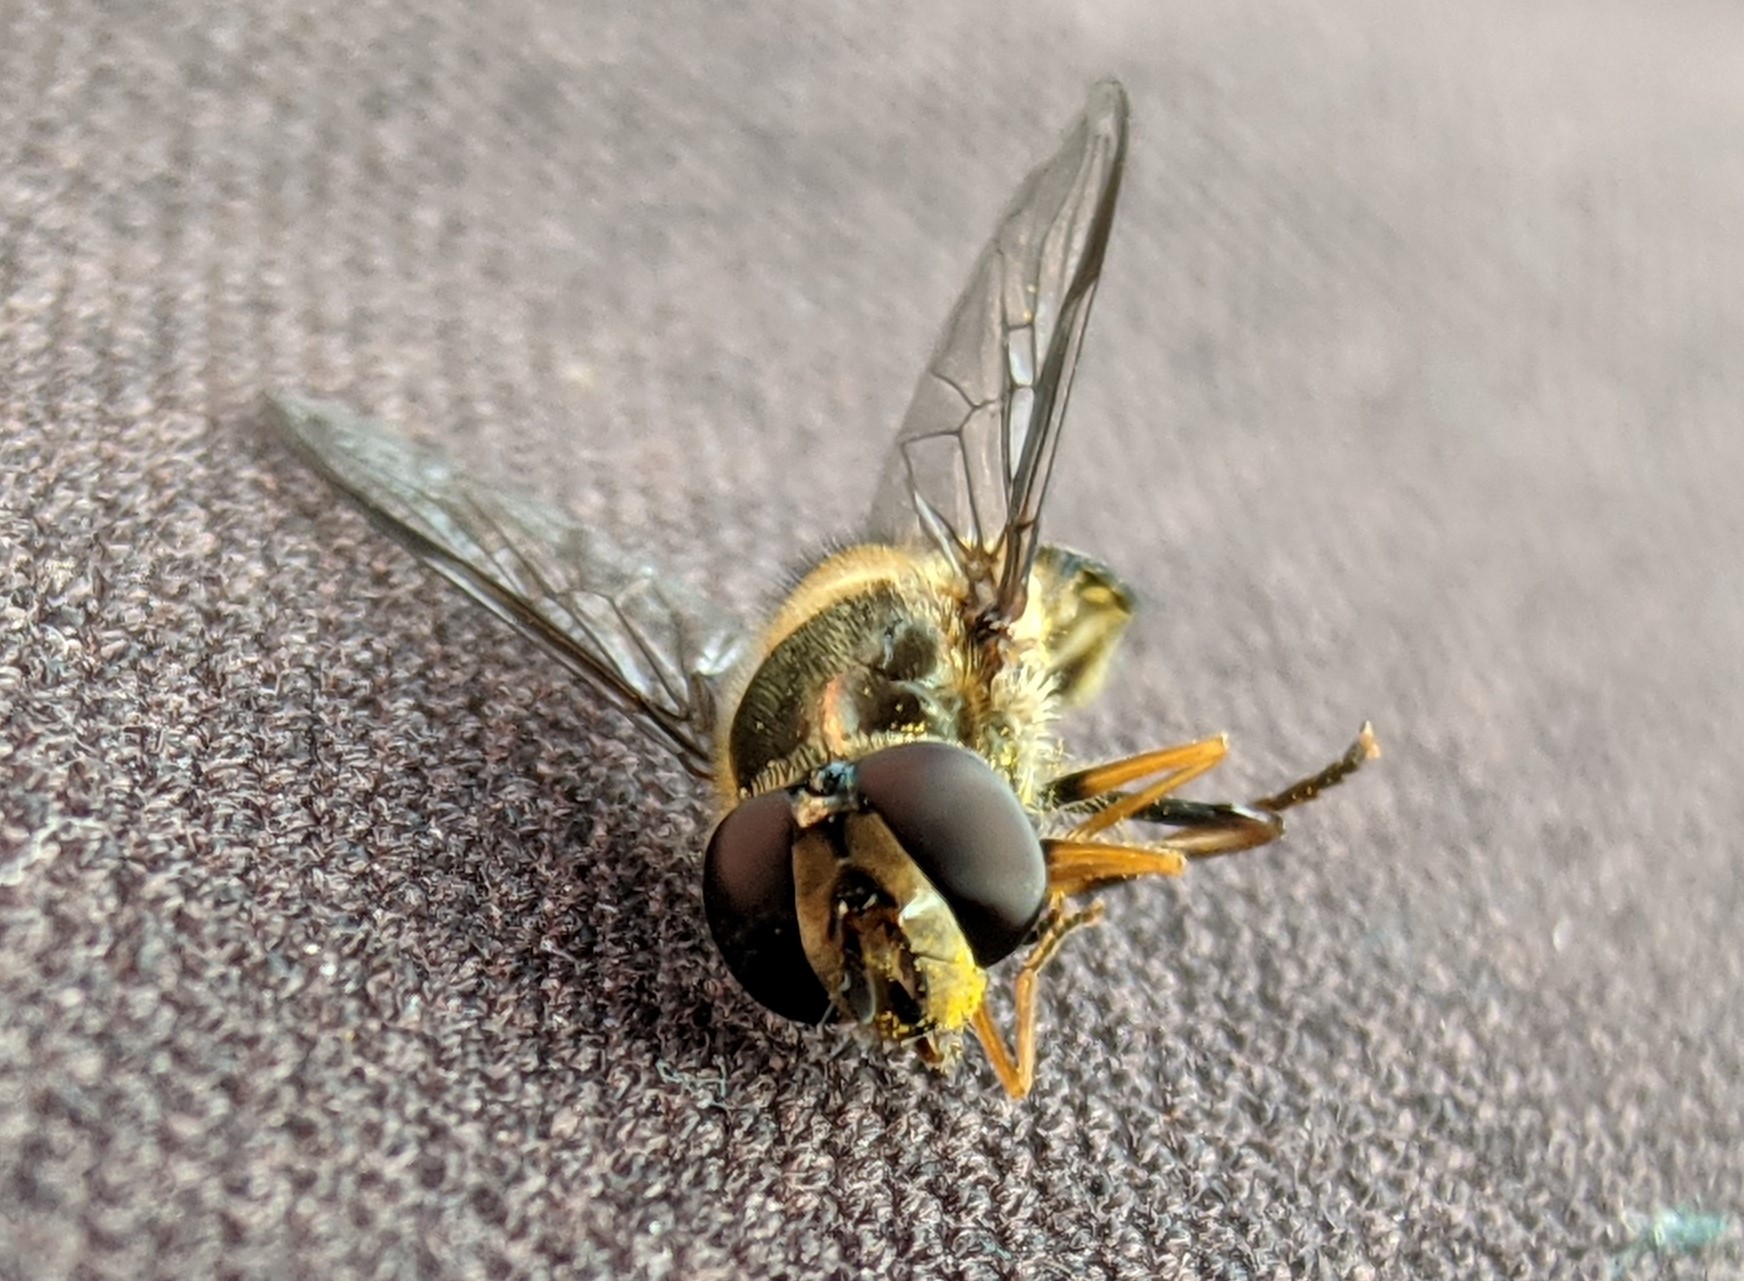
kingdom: Animalia
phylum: Arthropoda
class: Insecta
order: Diptera
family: Syrphidae
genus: Lapposyrphus
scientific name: Lapposyrphus lapponicus
